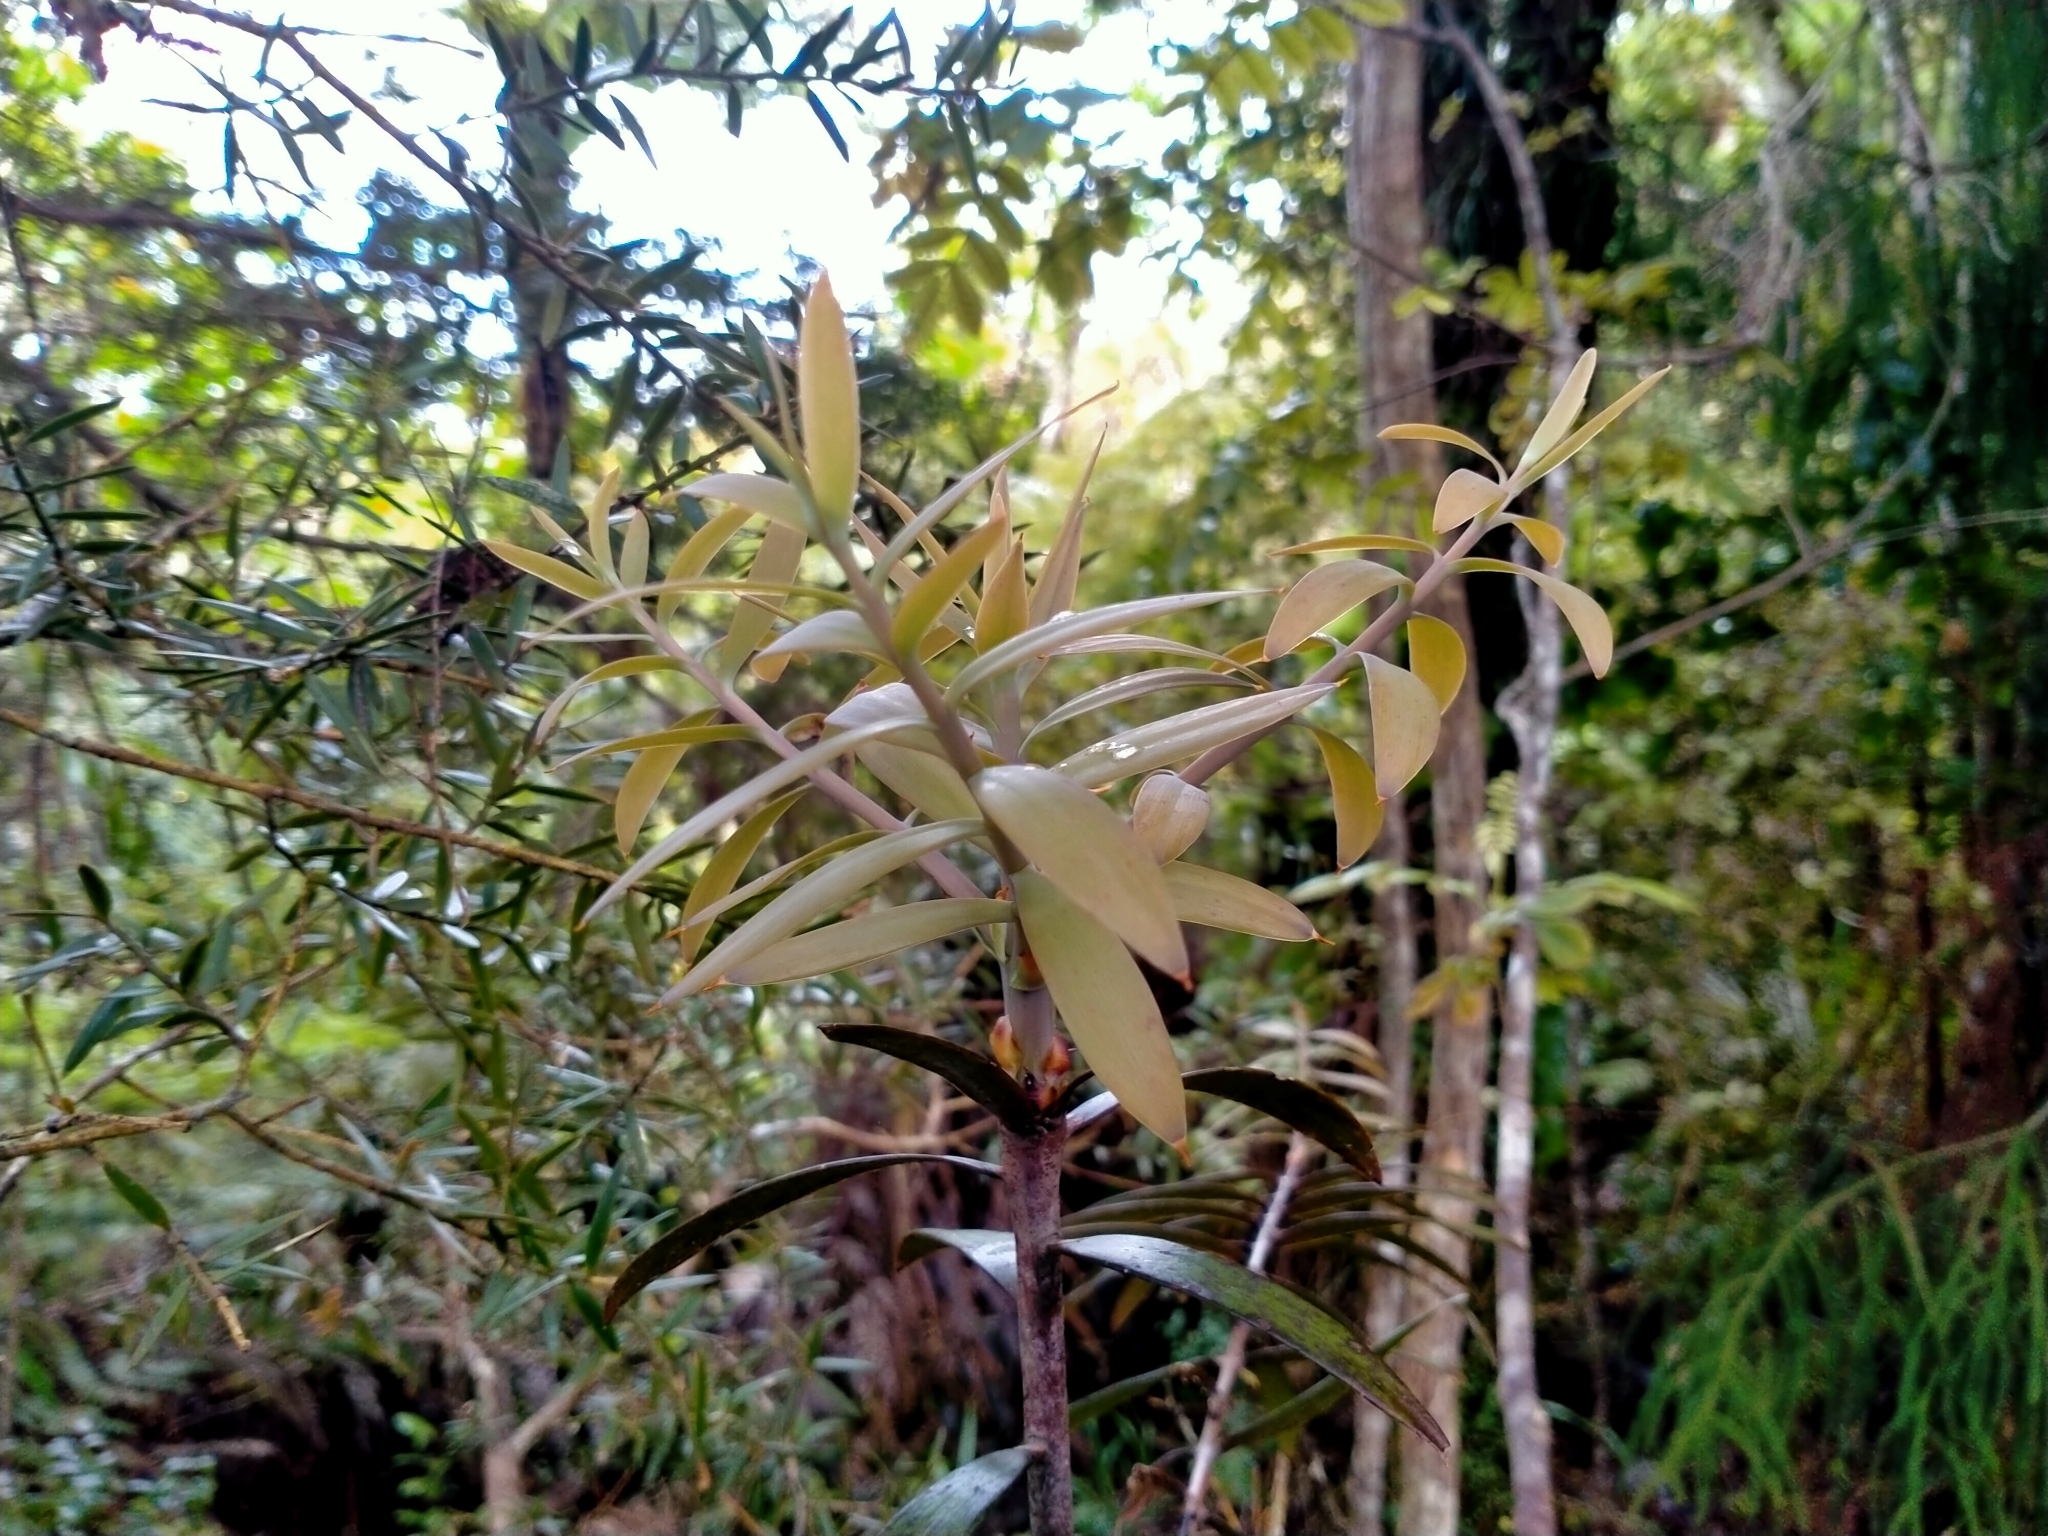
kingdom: Plantae
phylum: Tracheophyta
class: Pinopsida
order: Pinales
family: Araucariaceae
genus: Agathis
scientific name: Agathis australis
